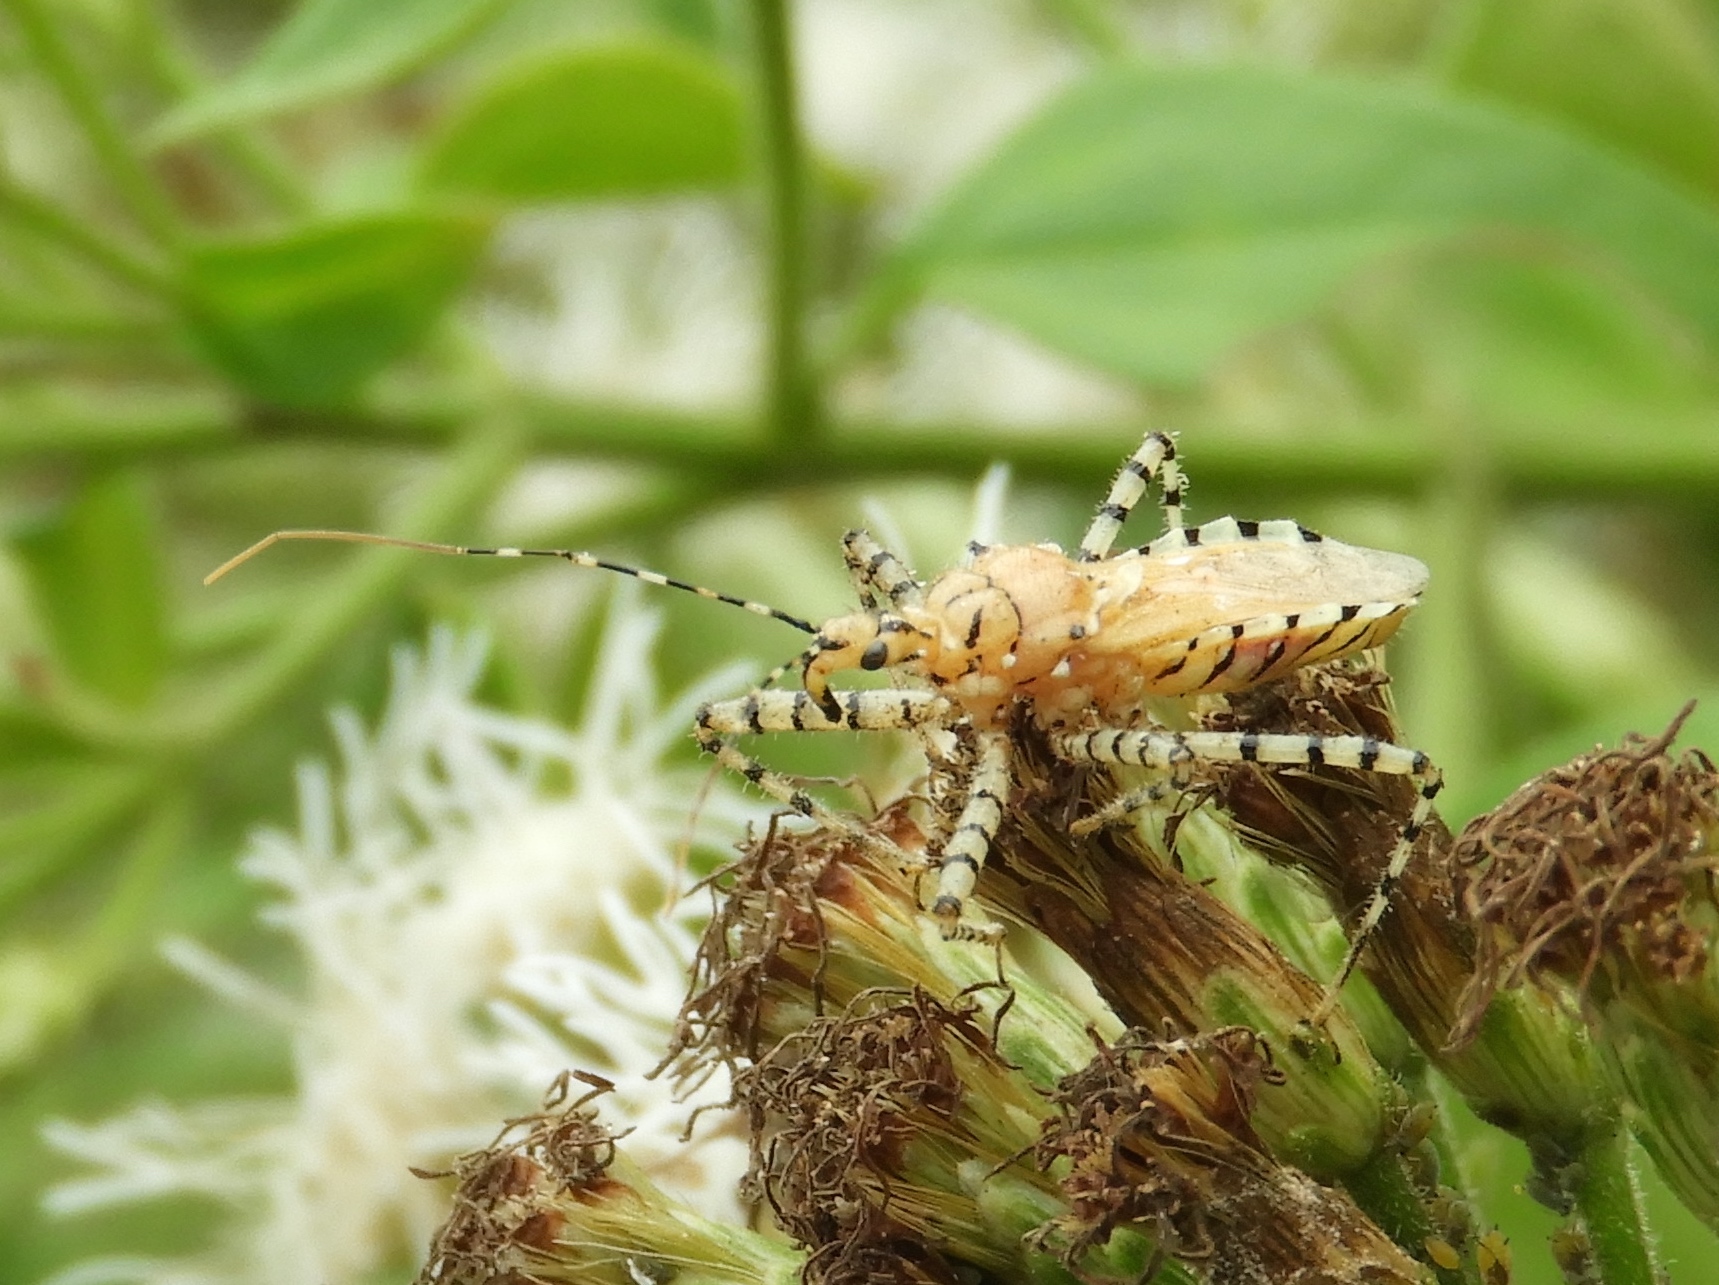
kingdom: Animalia
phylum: Arthropoda
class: Insecta
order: Hemiptera
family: Reduviidae
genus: Pselliopus
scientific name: Pselliopus
